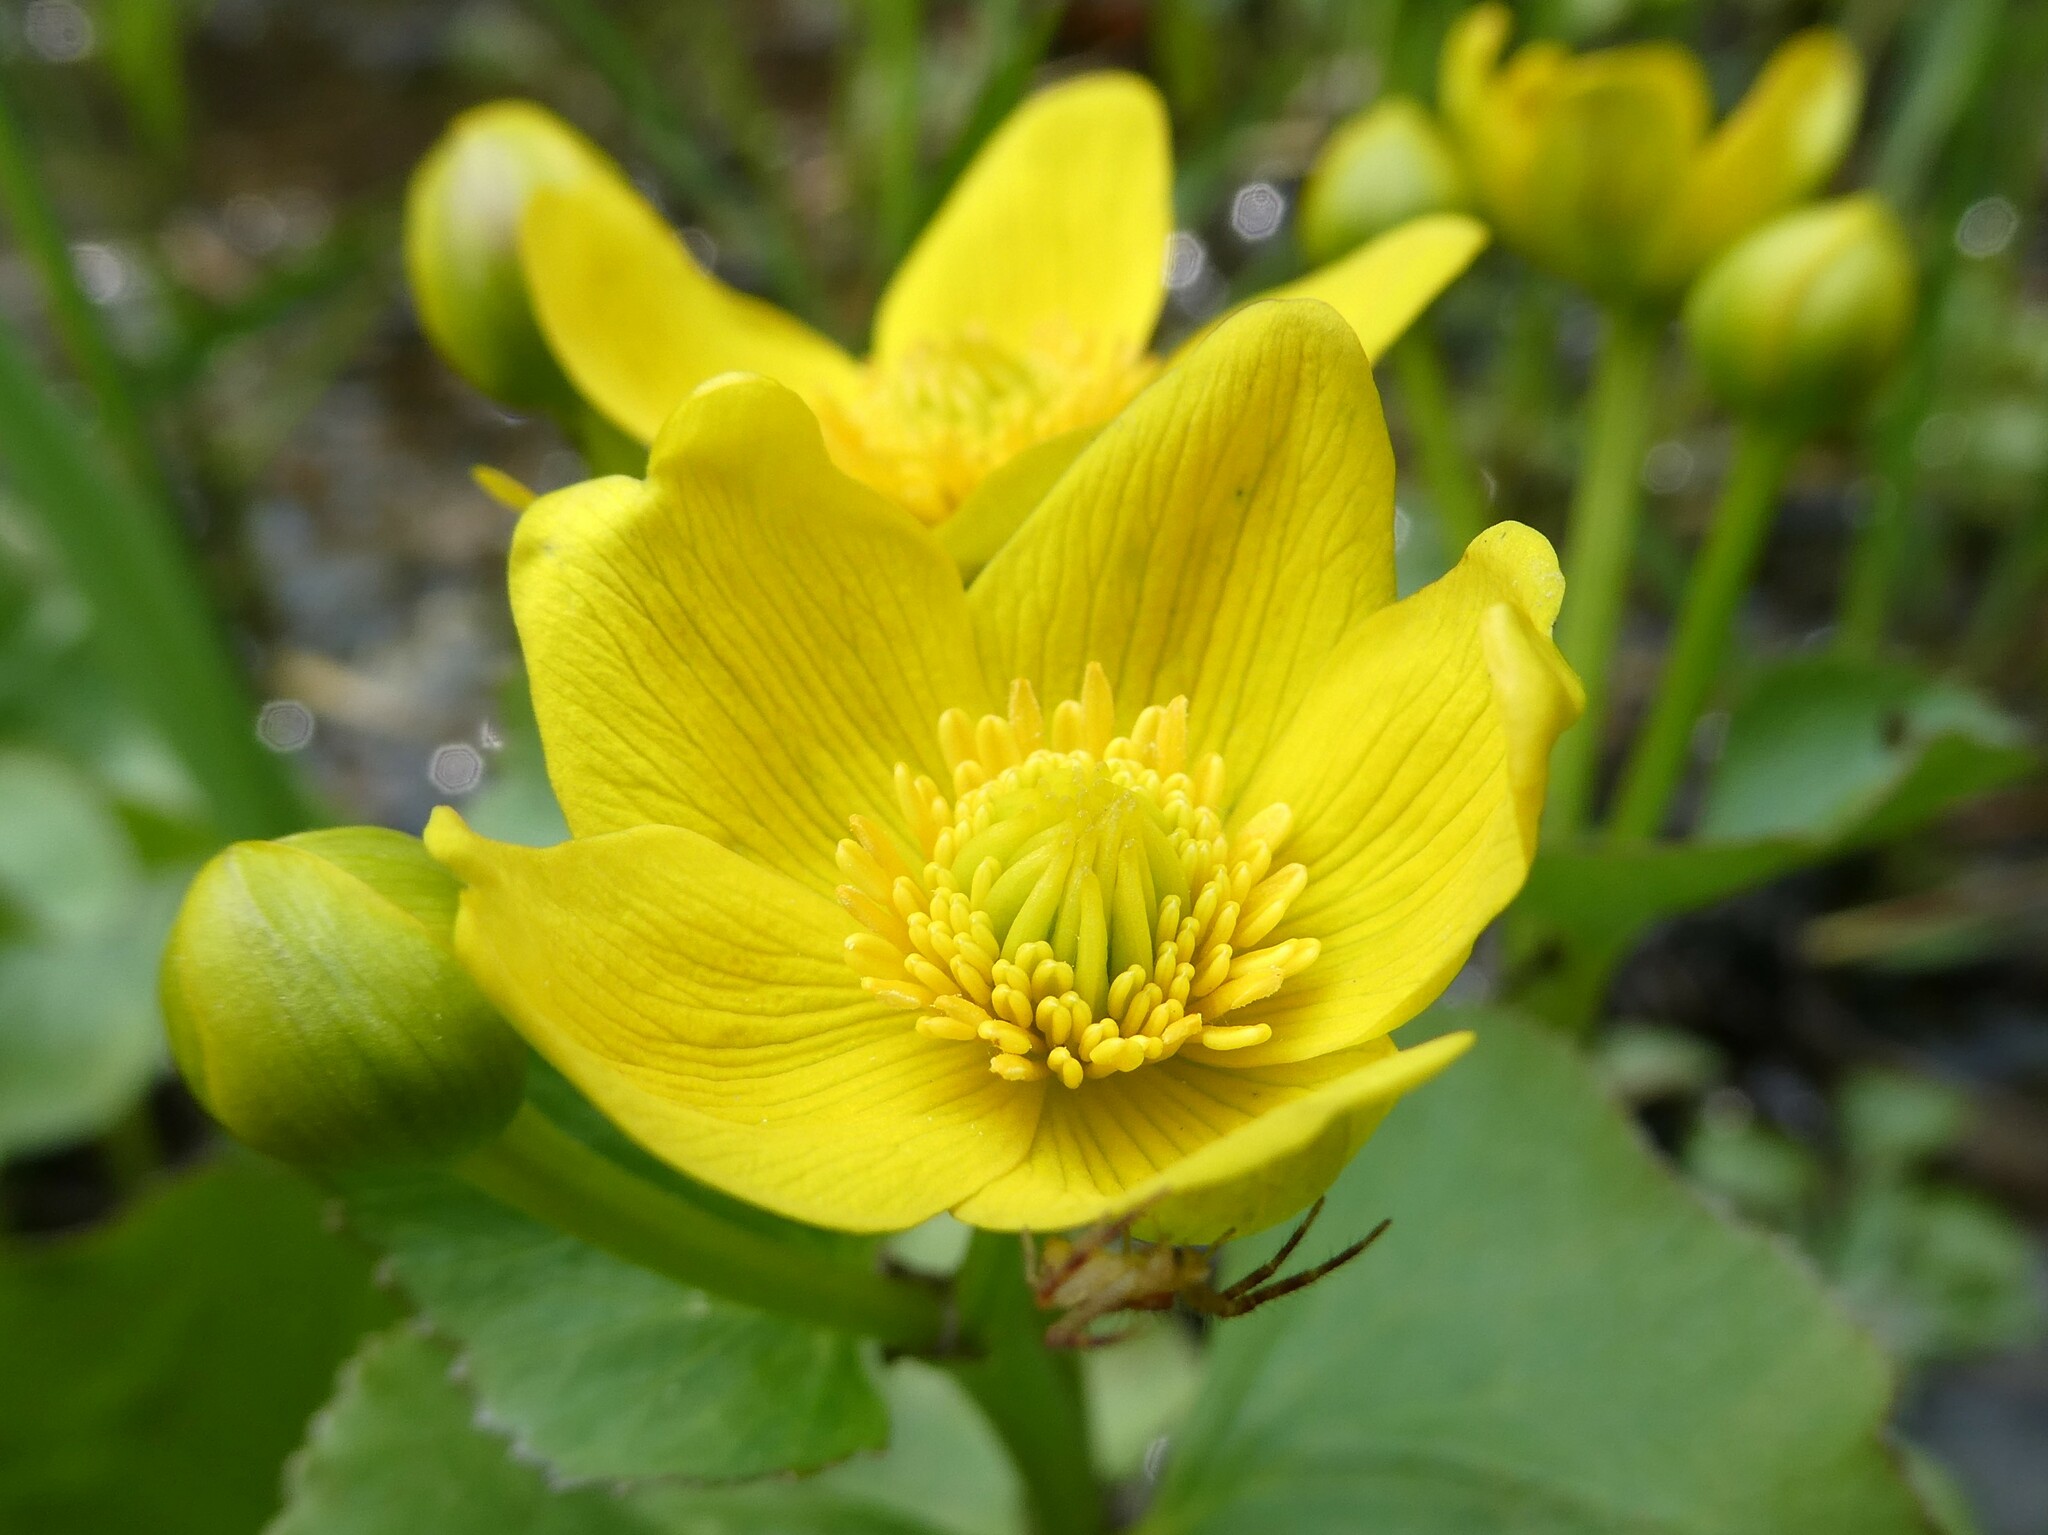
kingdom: Plantae
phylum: Tracheophyta
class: Magnoliopsida
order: Ranunculales
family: Ranunculaceae
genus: Caltha
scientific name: Caltha palustris
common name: Marsh marigold
